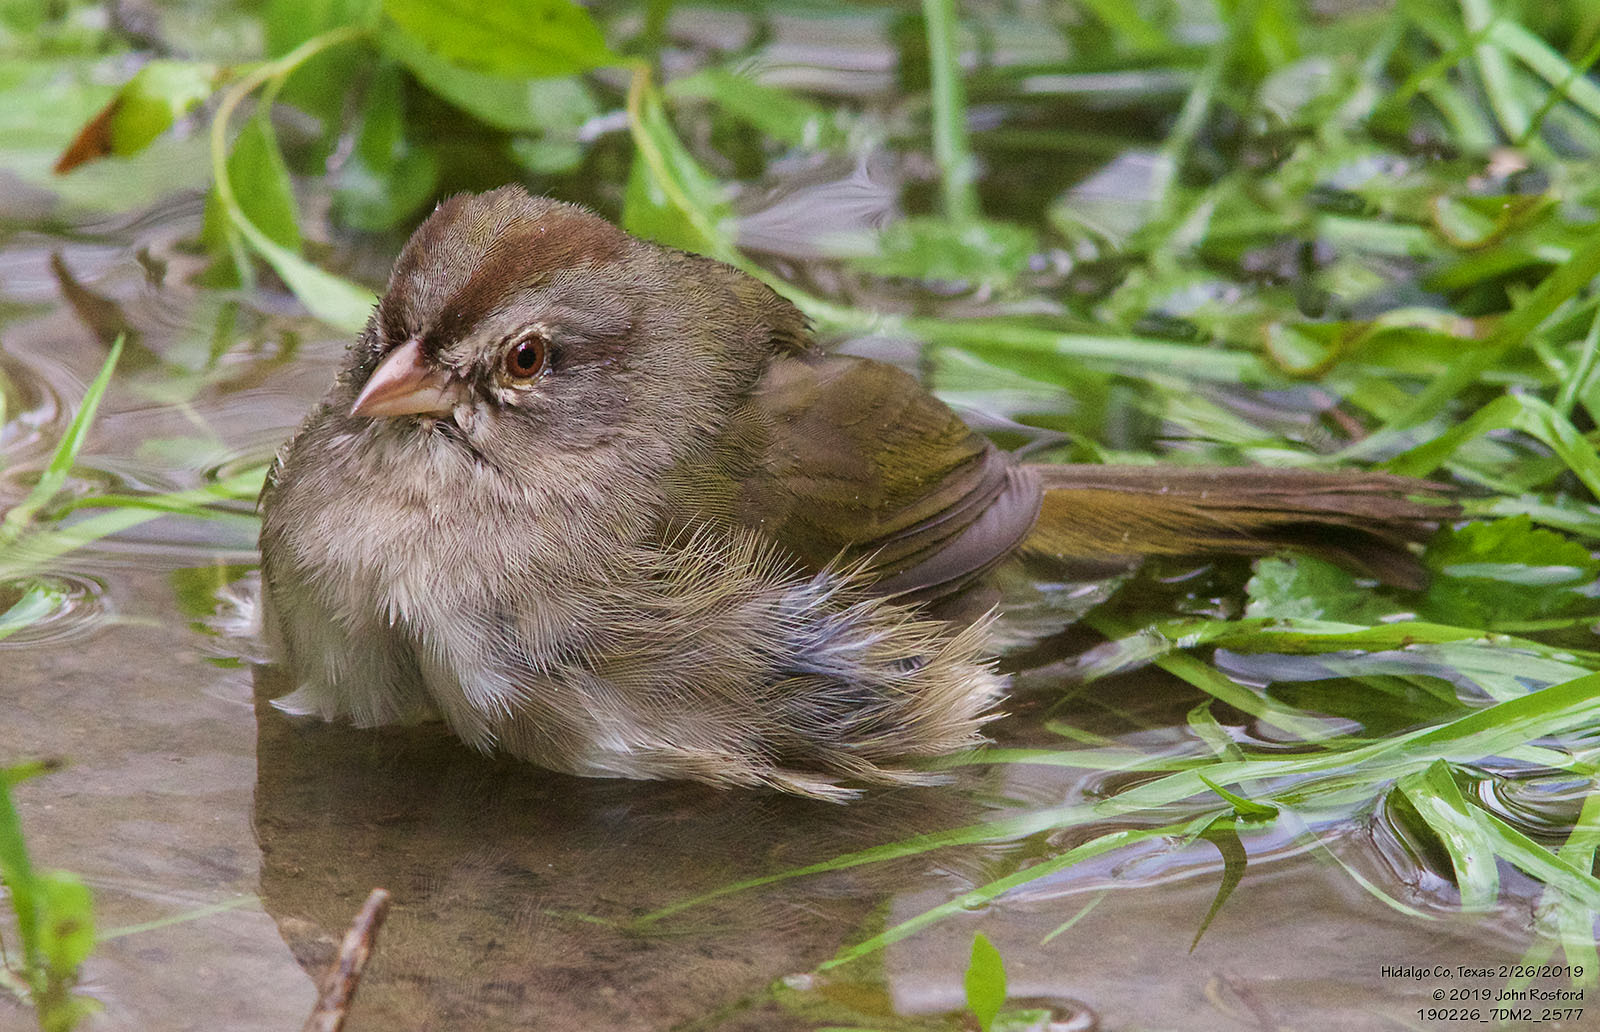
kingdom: Animalia
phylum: Chordata
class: Aves
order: Passeriformes
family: Passerellidae
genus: Arremonops
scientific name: Arremonops rufivirgatus
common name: Olive sparrow
